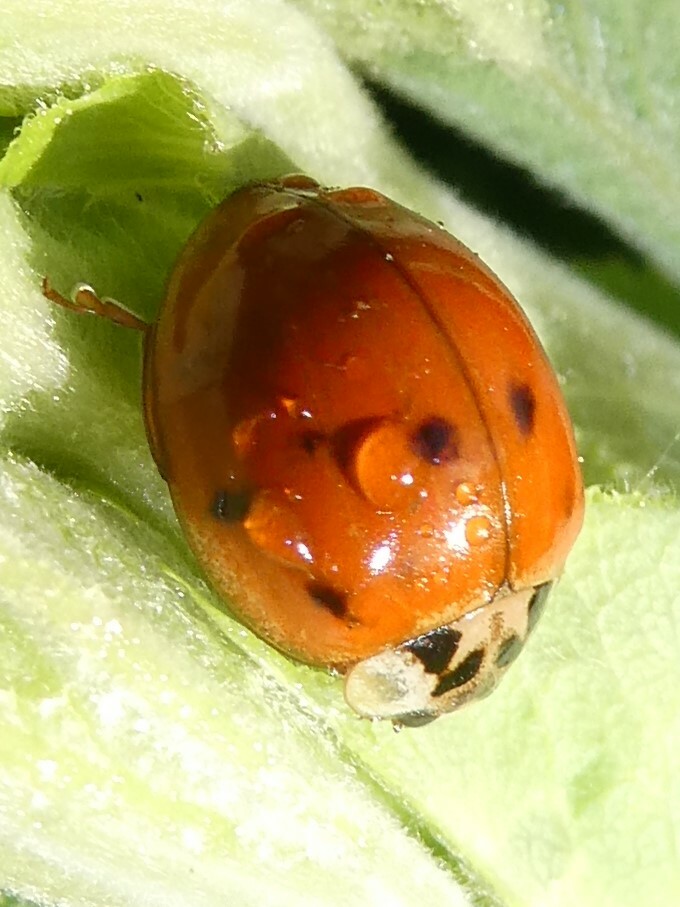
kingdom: Animalia
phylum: Arthropoda
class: Insecta
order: Coleoptera
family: Coccinellidae
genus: Harmonia
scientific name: Harmonia axyridis
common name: Harlequin ladybird
